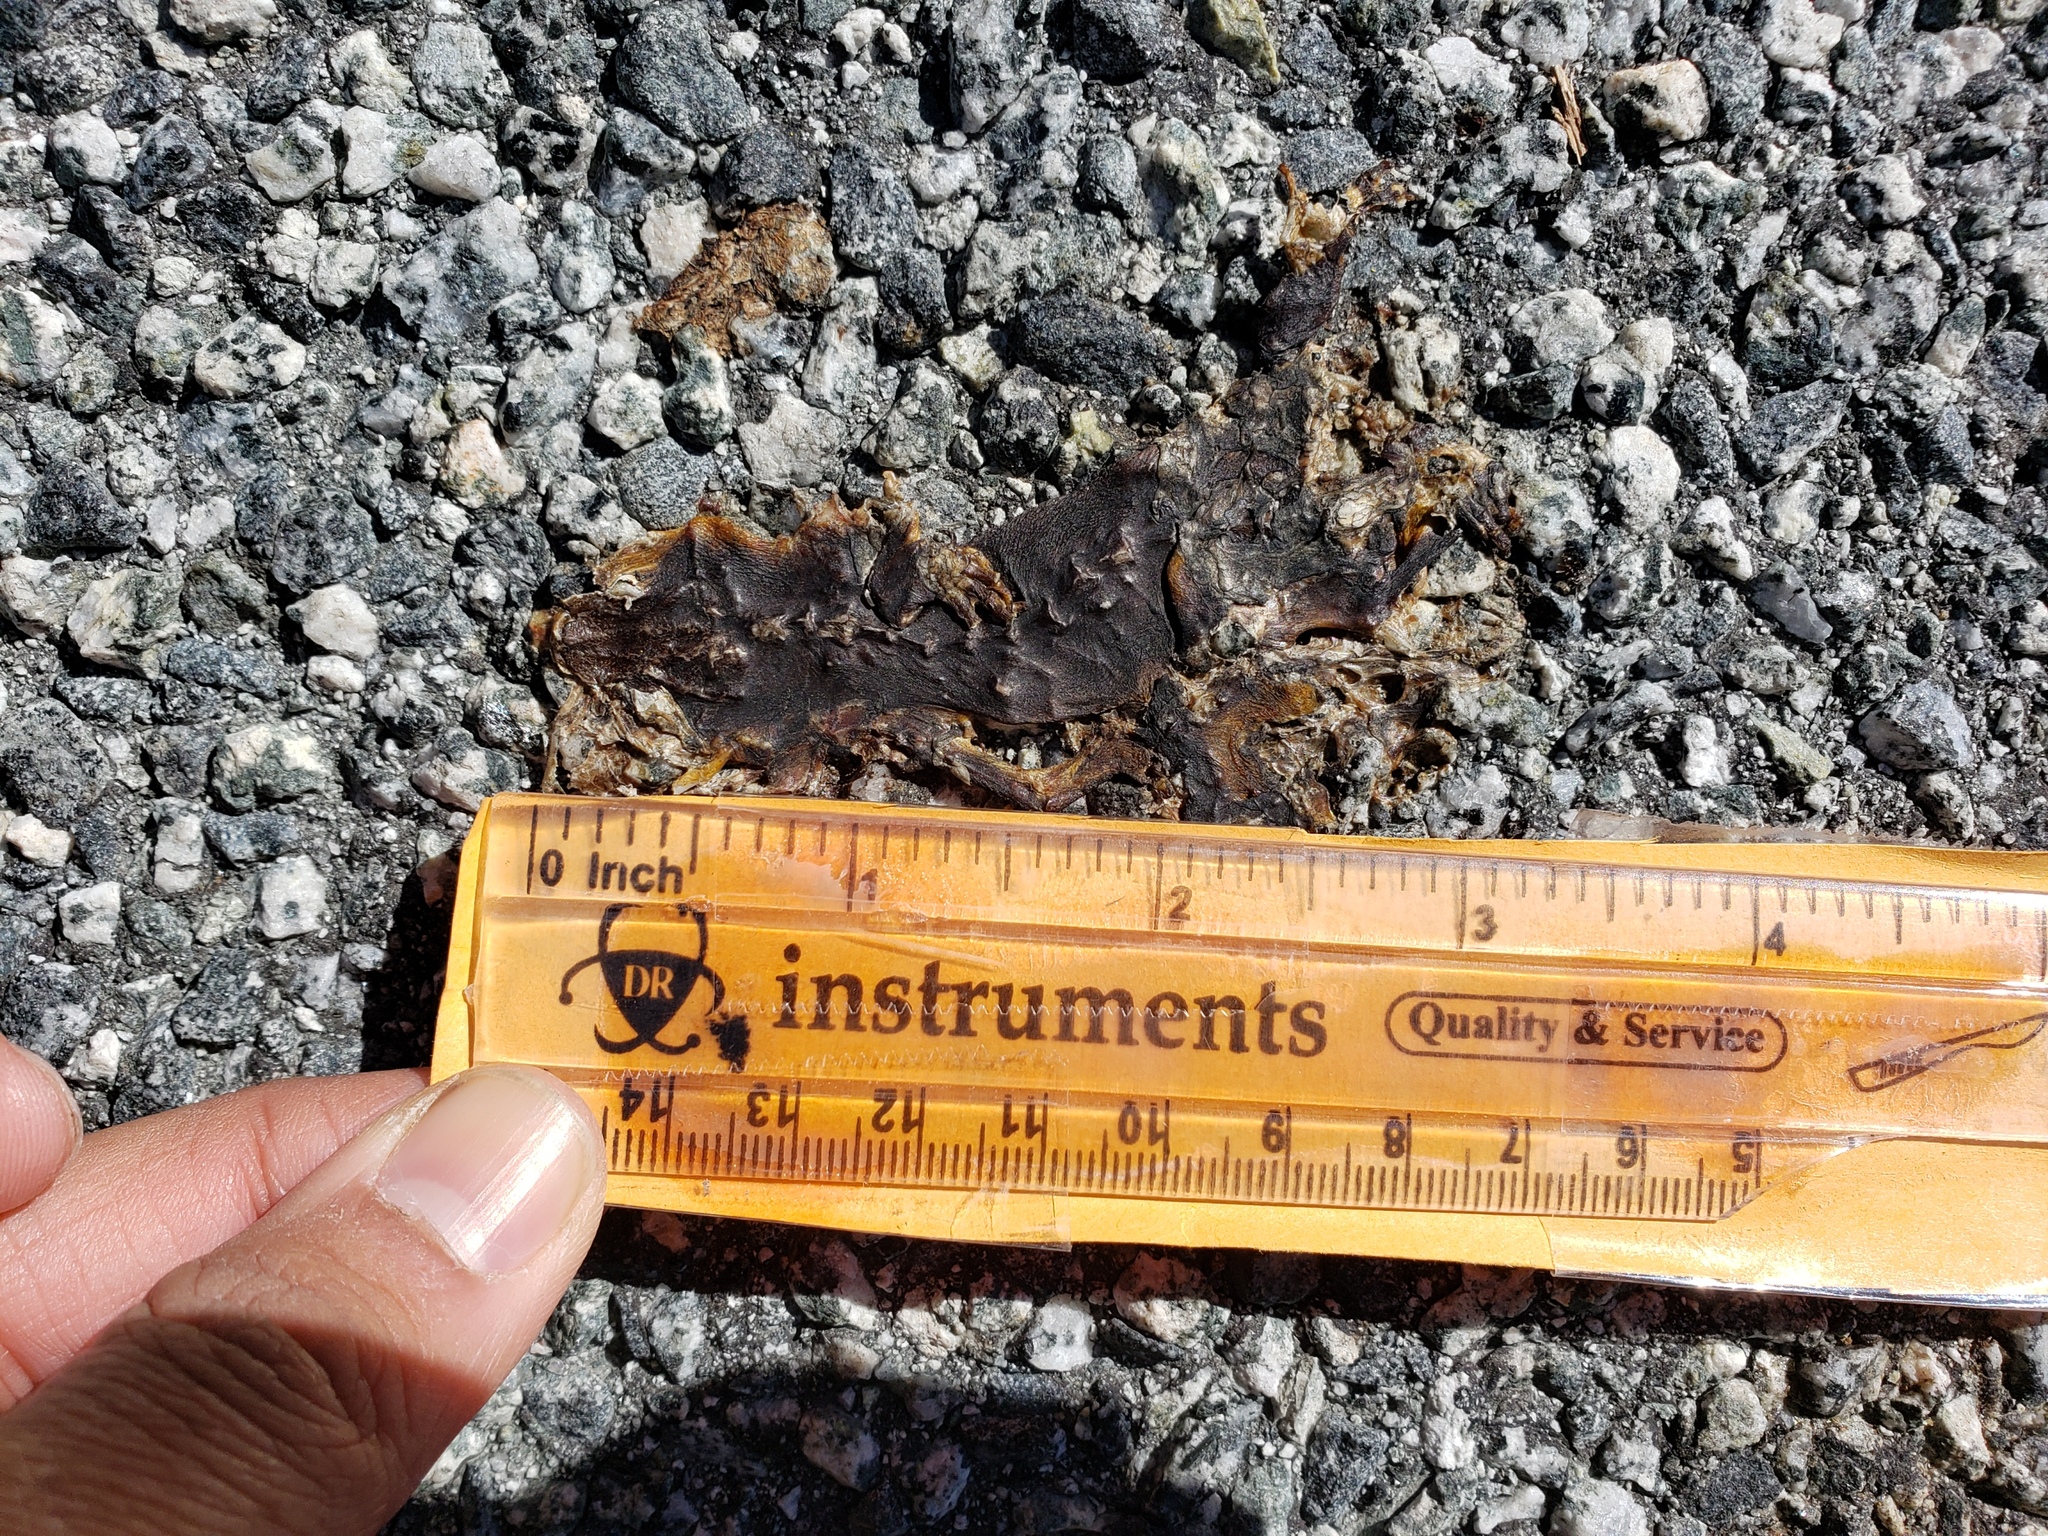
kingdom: Animalia
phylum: Chordata
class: Amphibia
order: Caudata
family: Salamandridae
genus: Taricha
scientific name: Taricha
